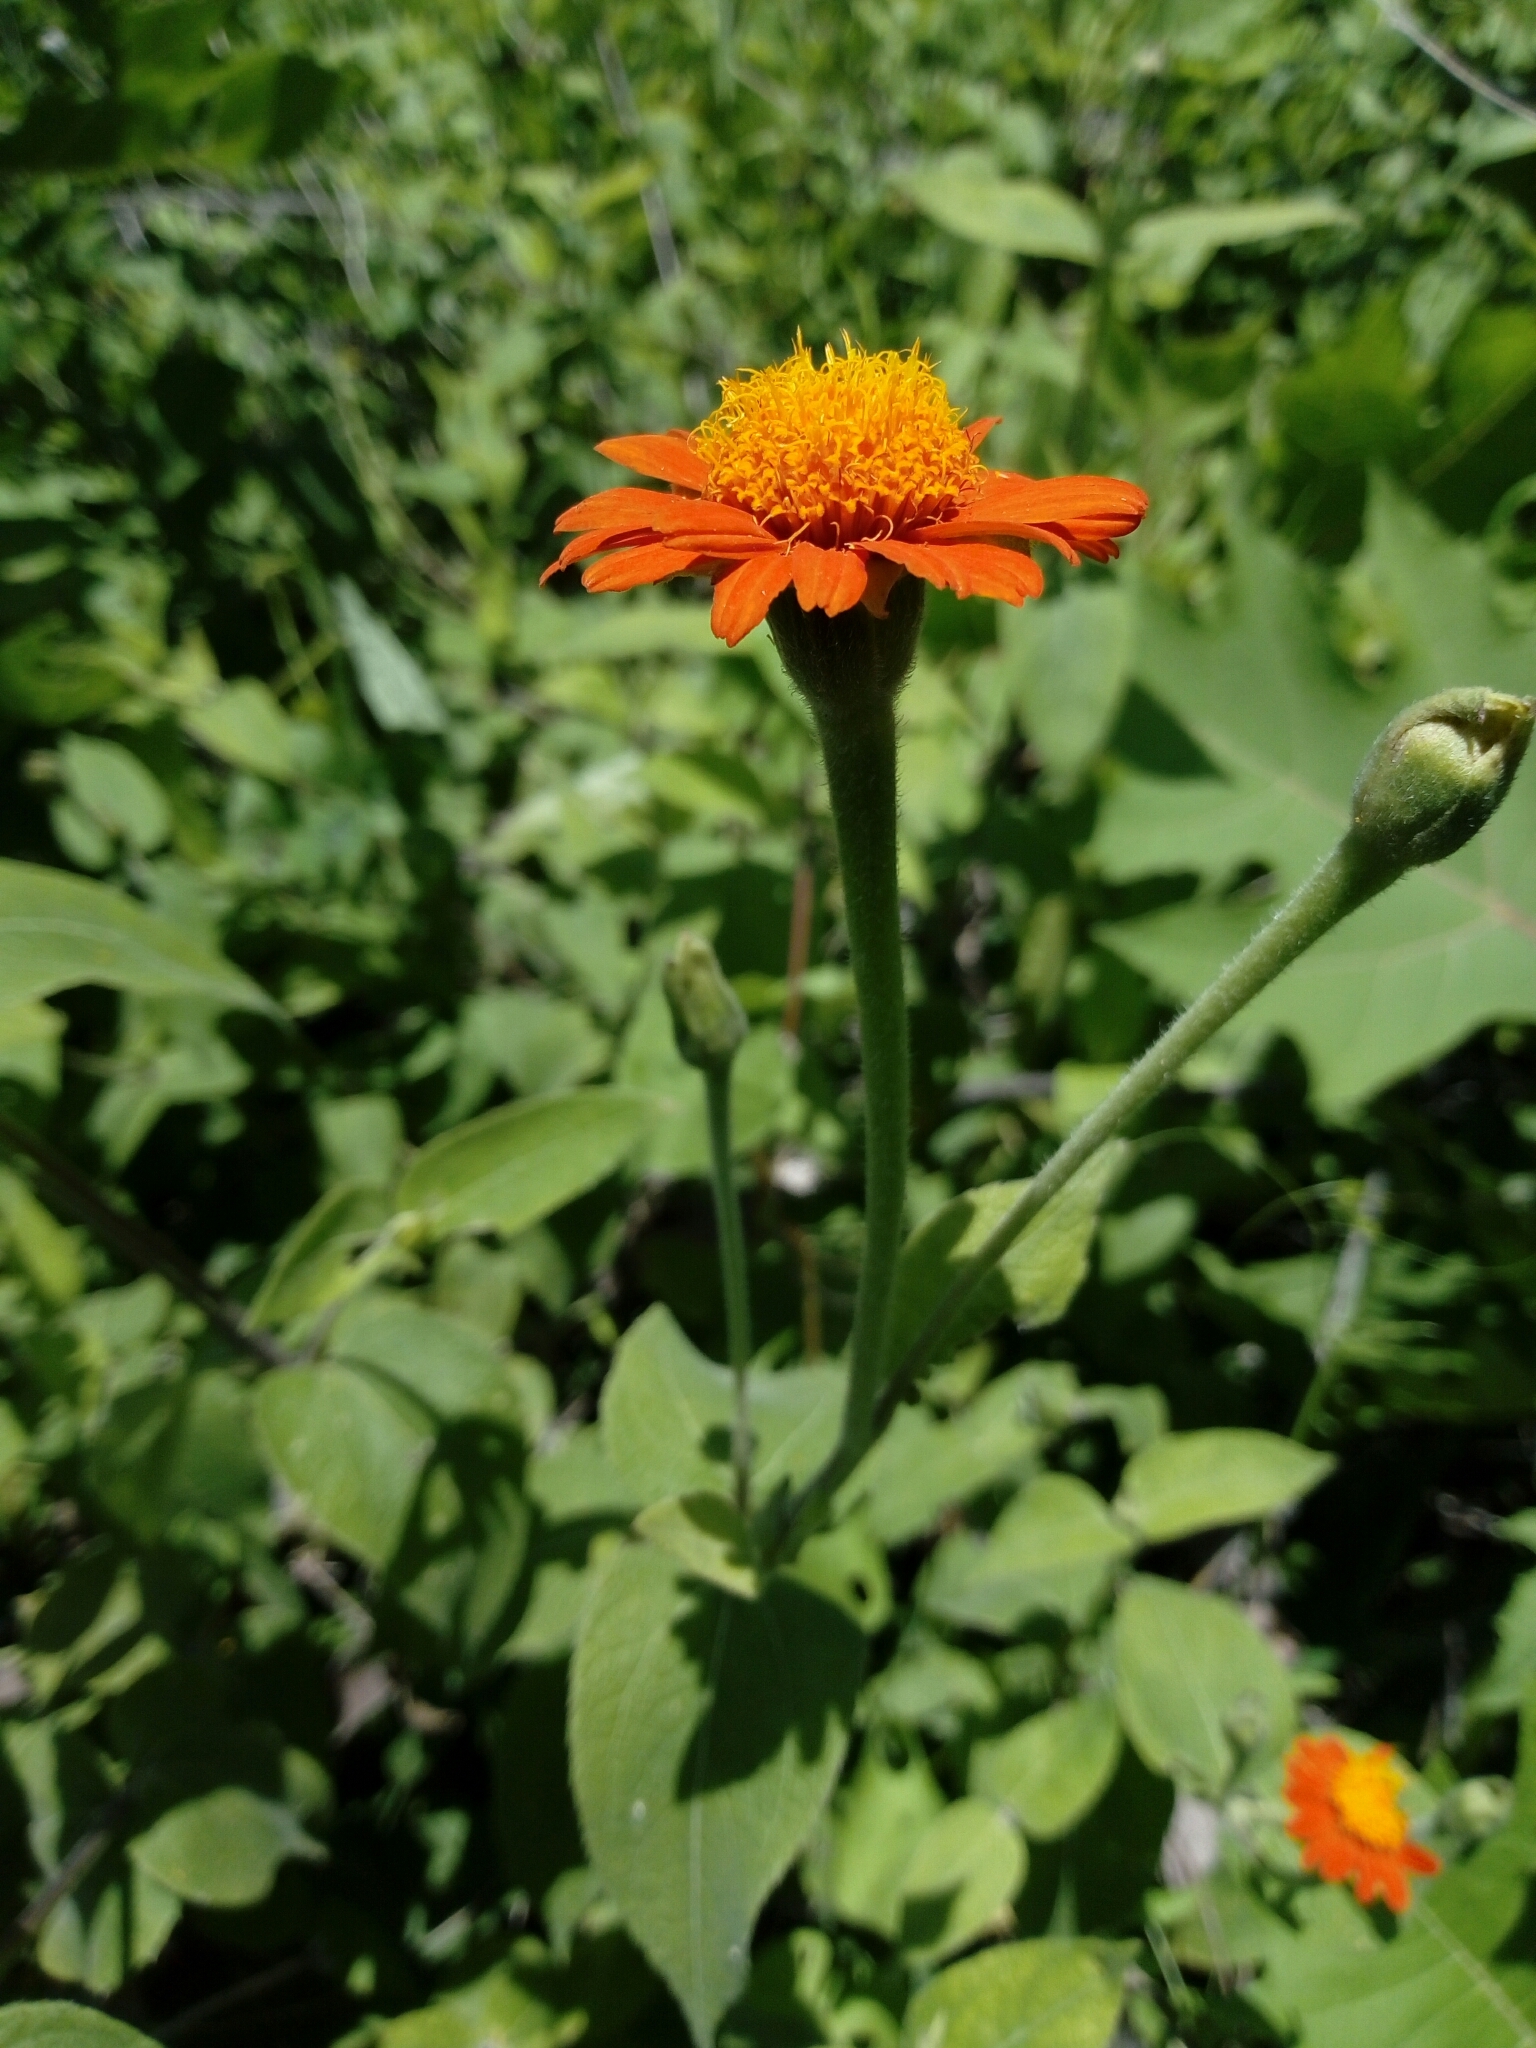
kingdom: Plantae
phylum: Tracheophyta
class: Magnoliopsida
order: Asterales
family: Asteraceae
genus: Tithonia
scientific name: Tithonia rotundifolia
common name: Sunflower
